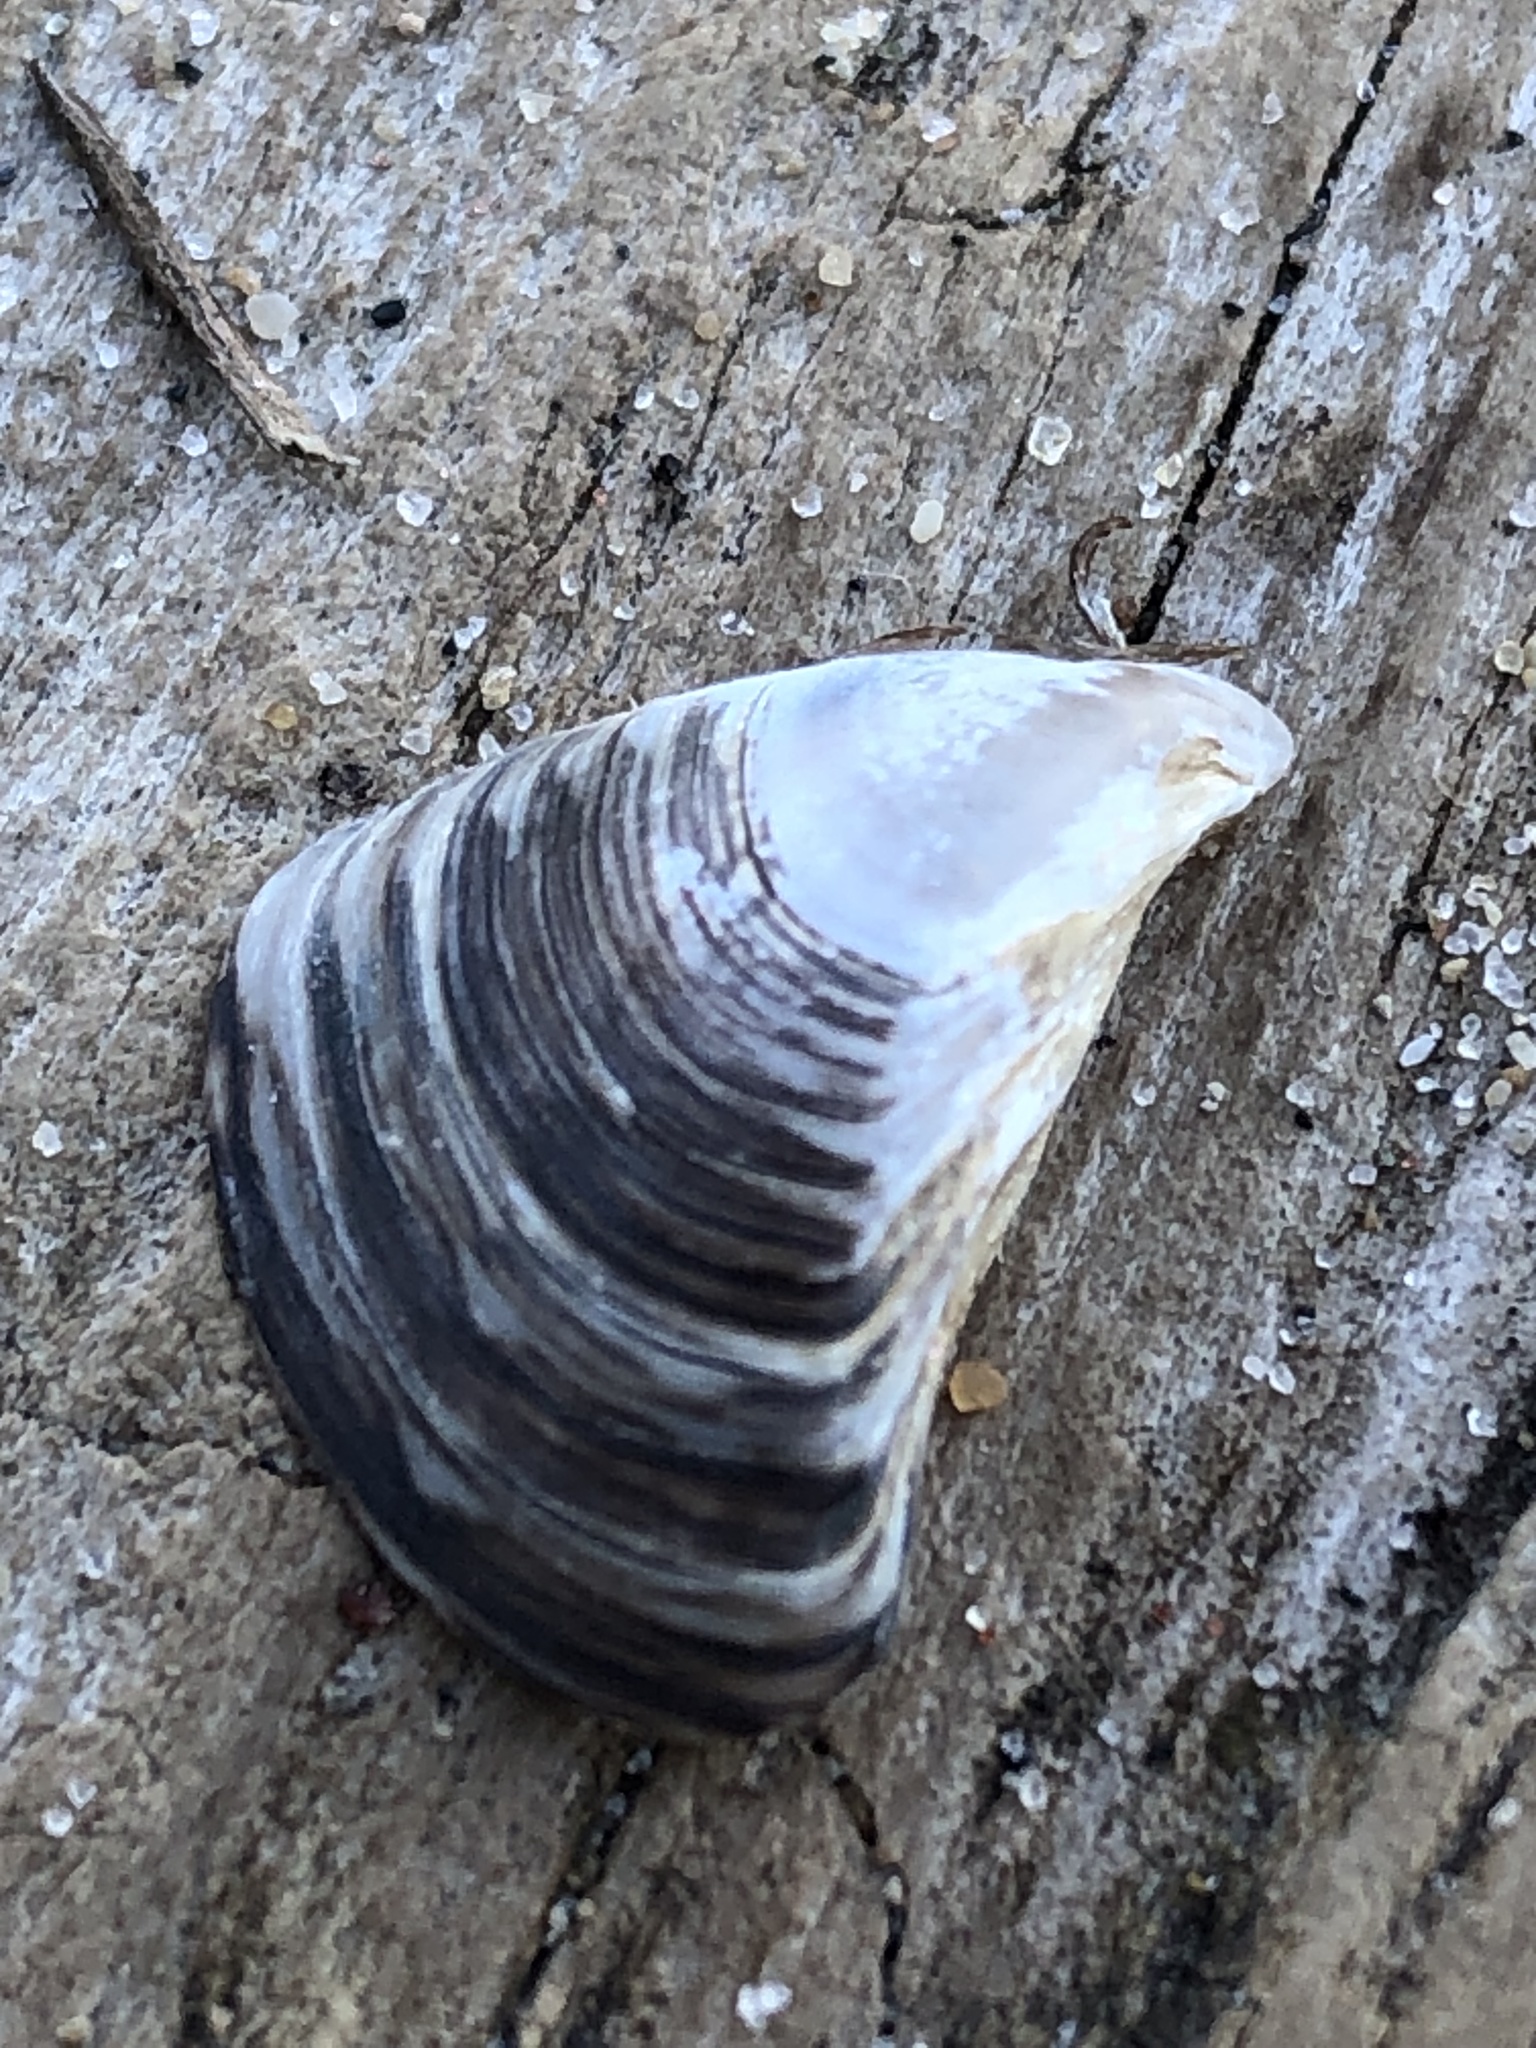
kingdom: Animalia
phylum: Mollusca
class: Bivalvia
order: Myida
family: Dreissenidae
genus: Dreissena
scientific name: Dreissena polymorpha
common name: Zebra mussel
